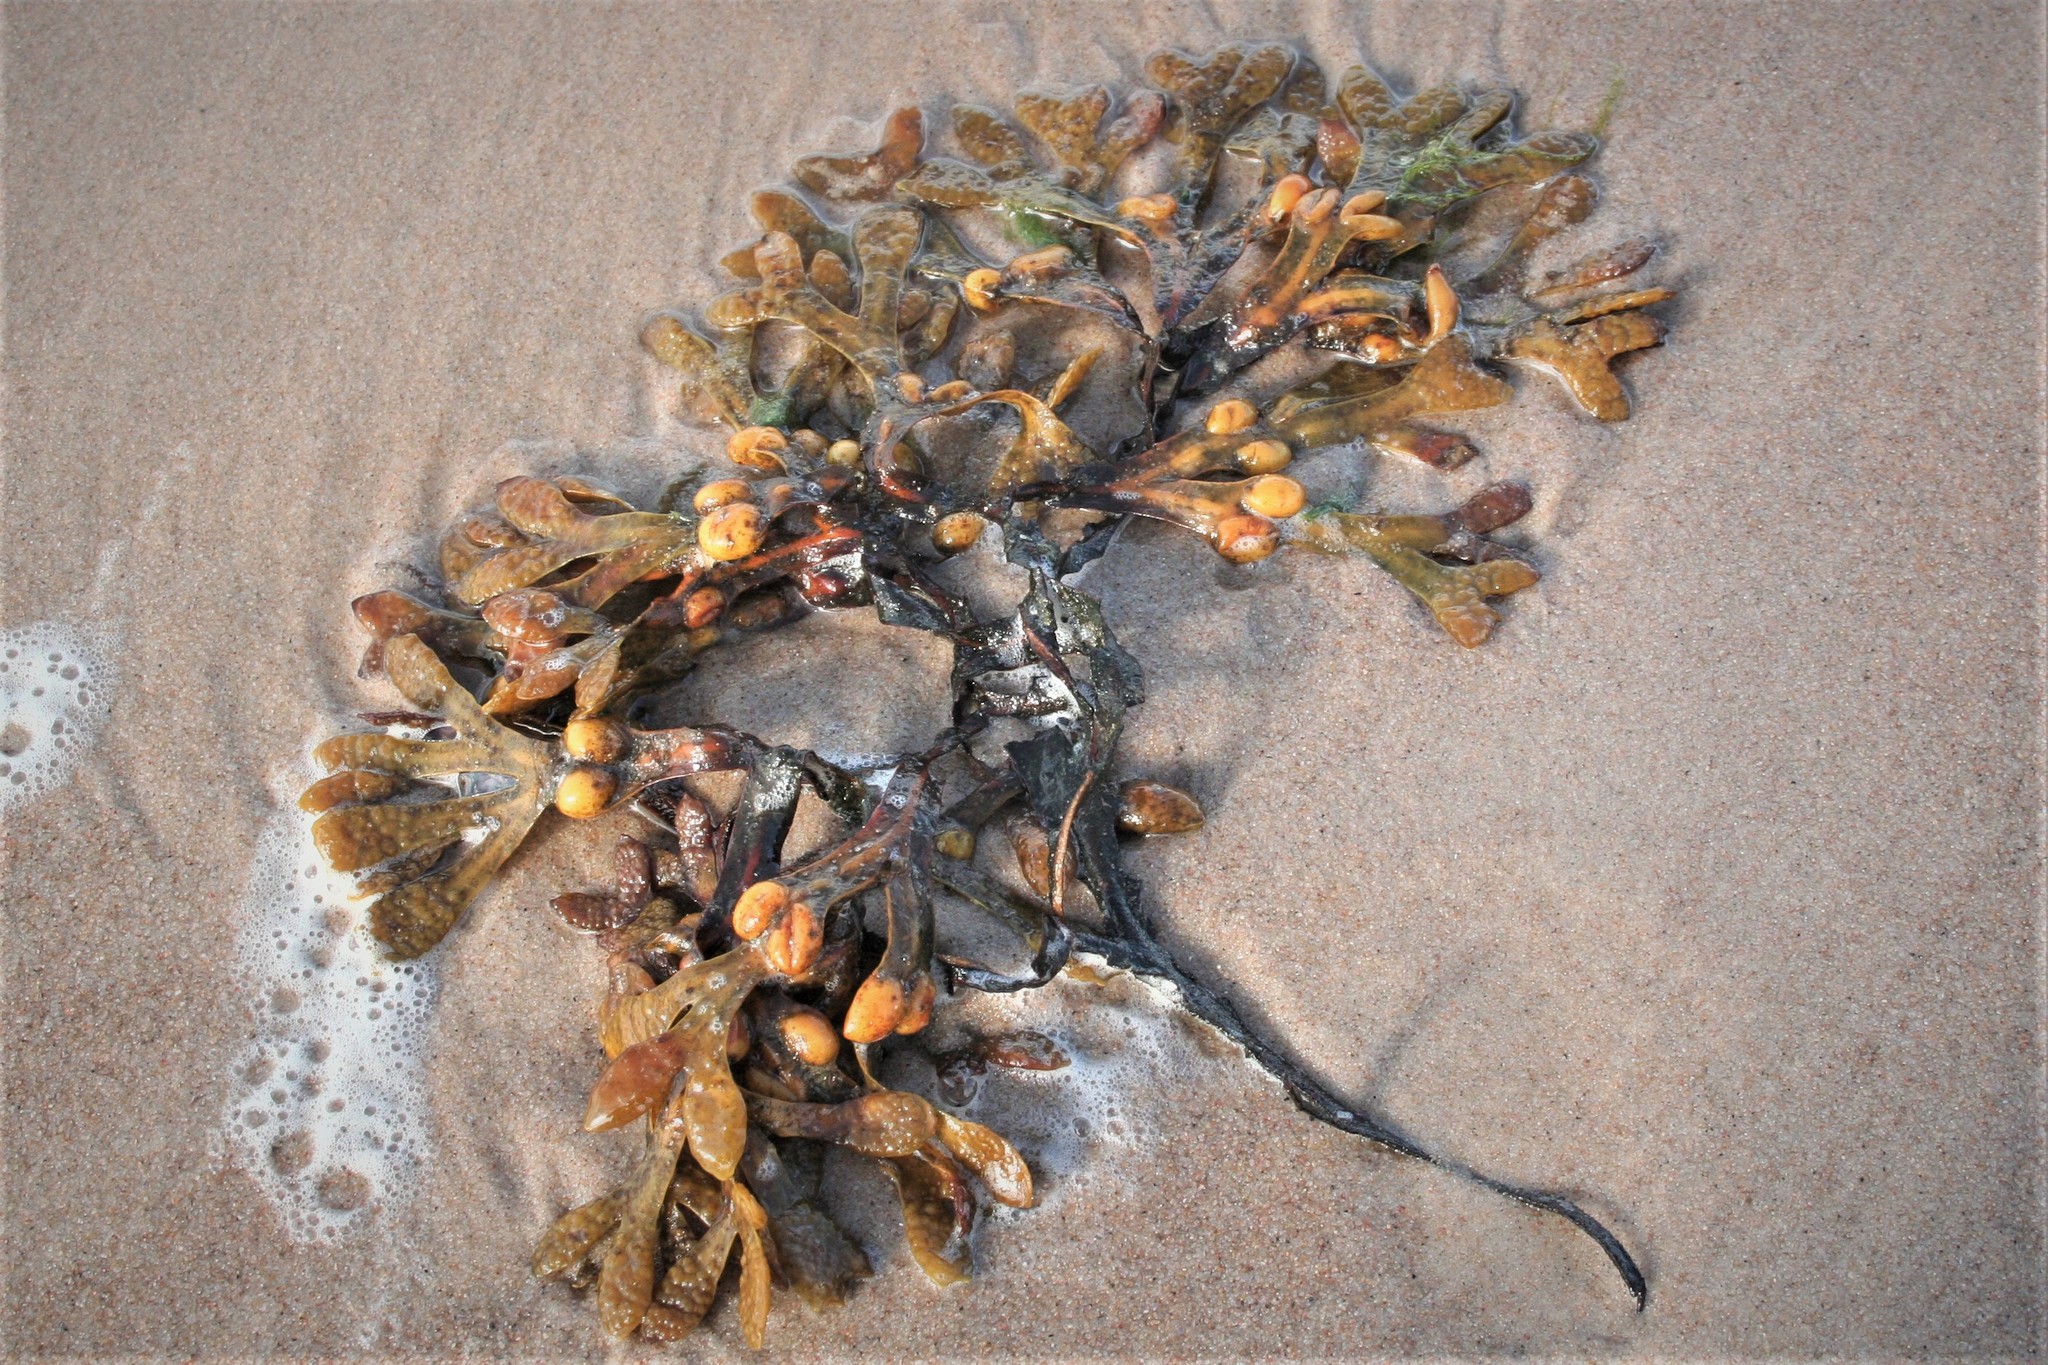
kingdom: Chromista
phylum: Ochrophyta
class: Phaeophyceae
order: Fucales
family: Fucaceae
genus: Fucus
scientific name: Fucus vesiculosus
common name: Bladder wrack
